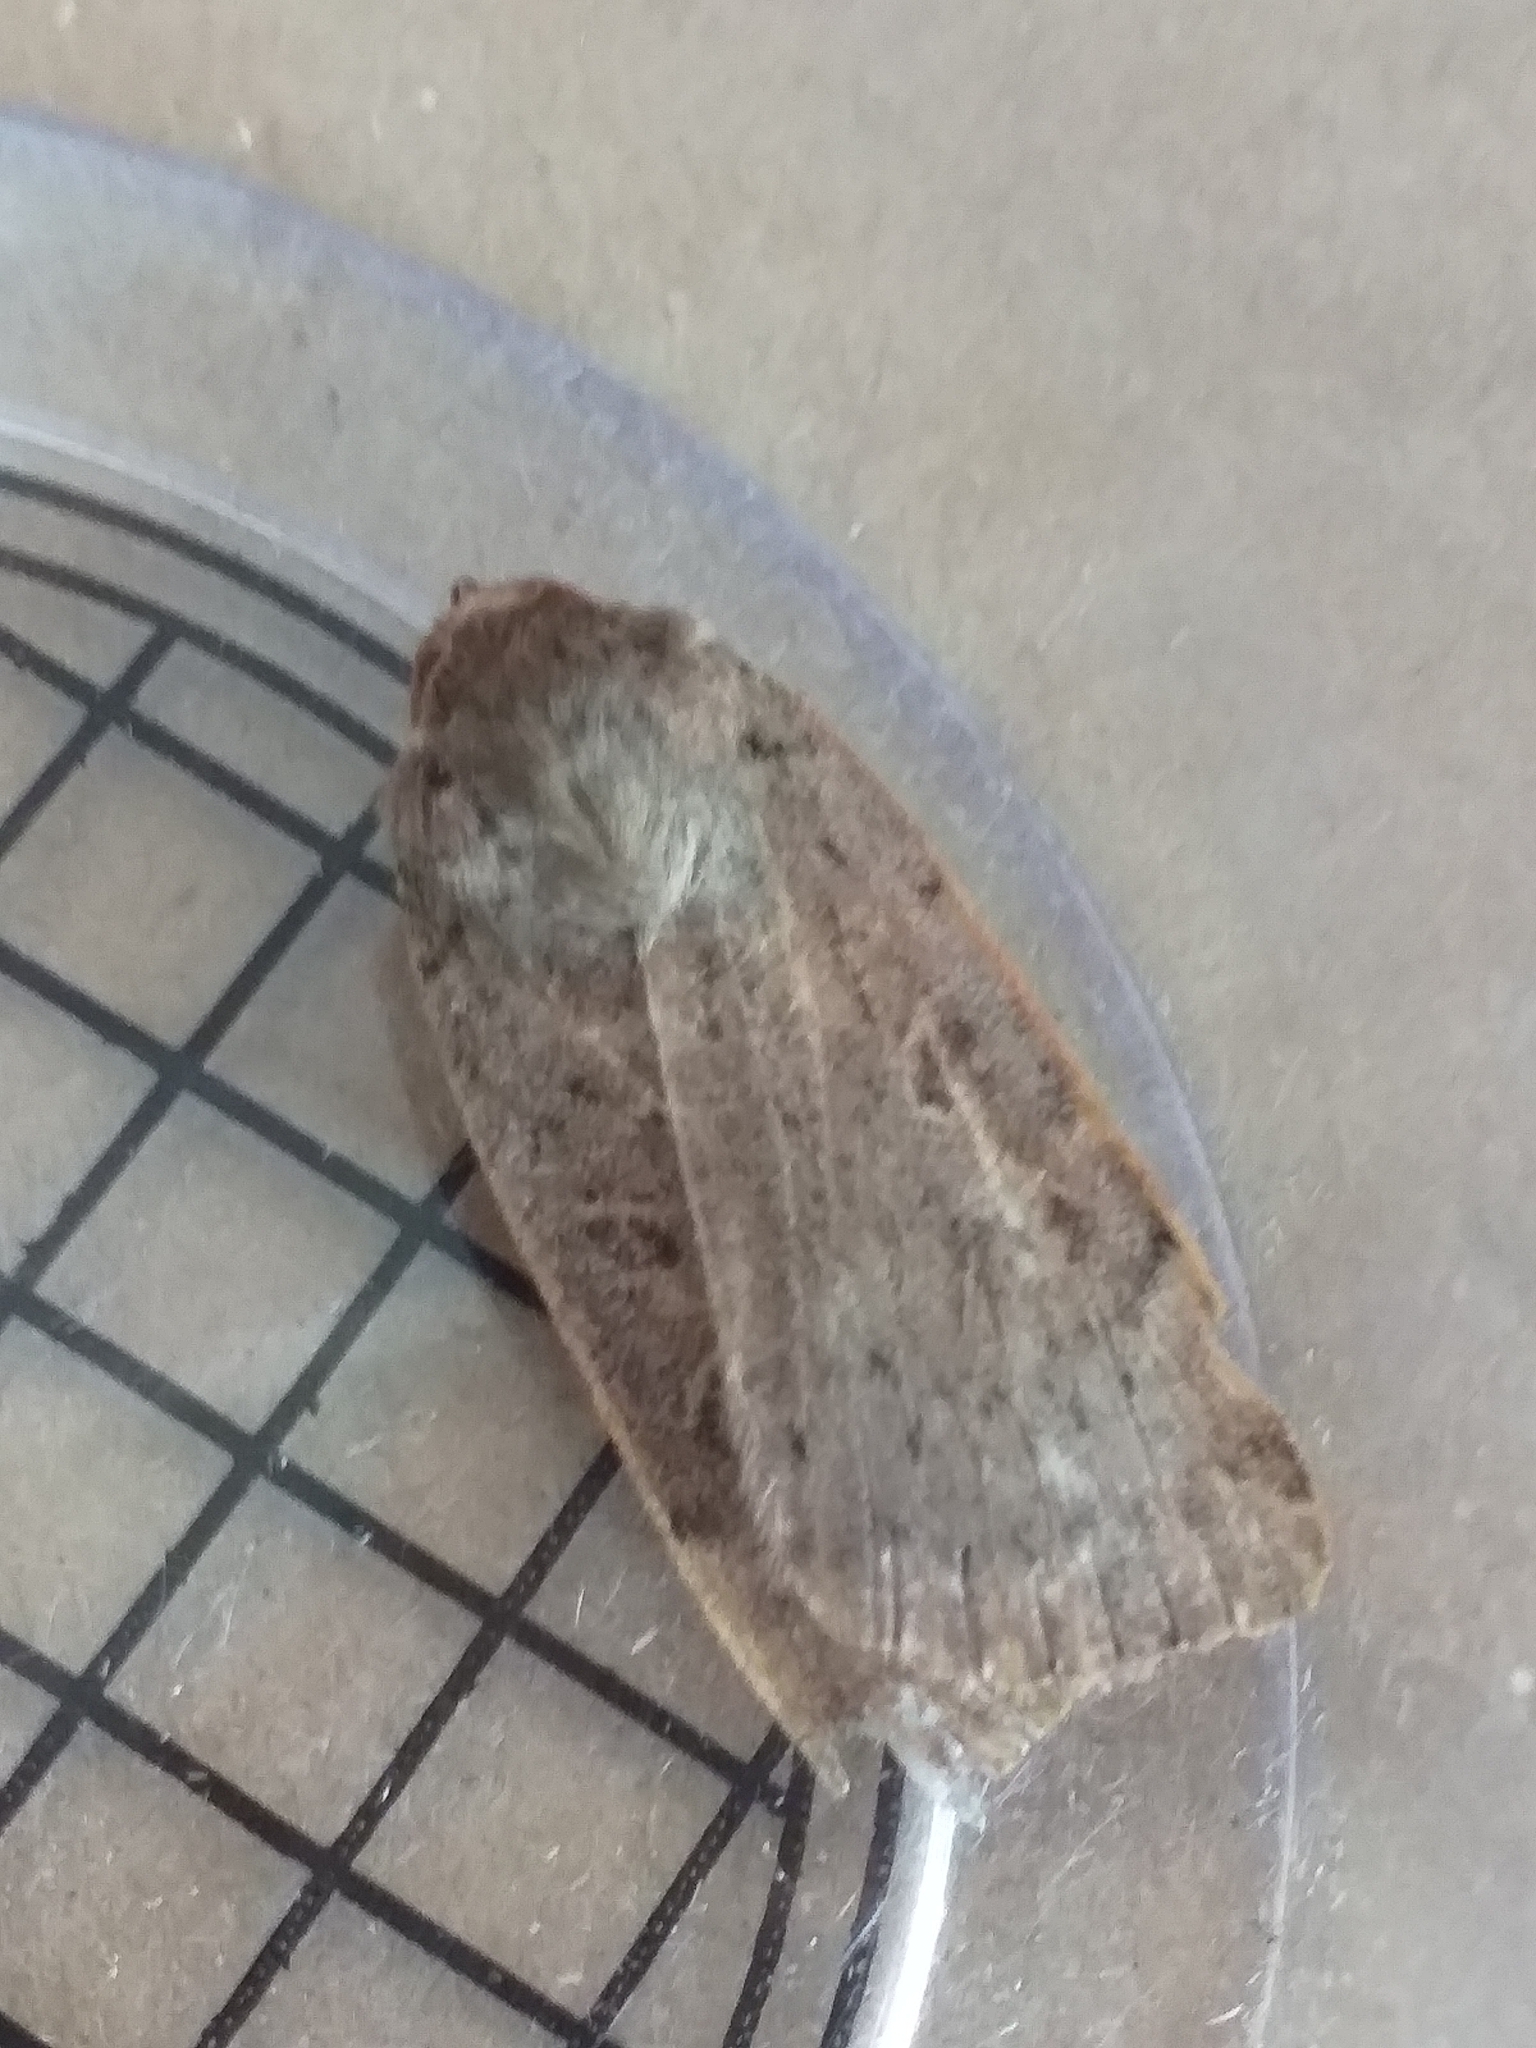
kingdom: Animalia
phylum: Arthropoda
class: Insecta
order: Lepidoptera
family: Noctuidae
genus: Noctua
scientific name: Noctua comes
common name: Lesser yellow underwing
